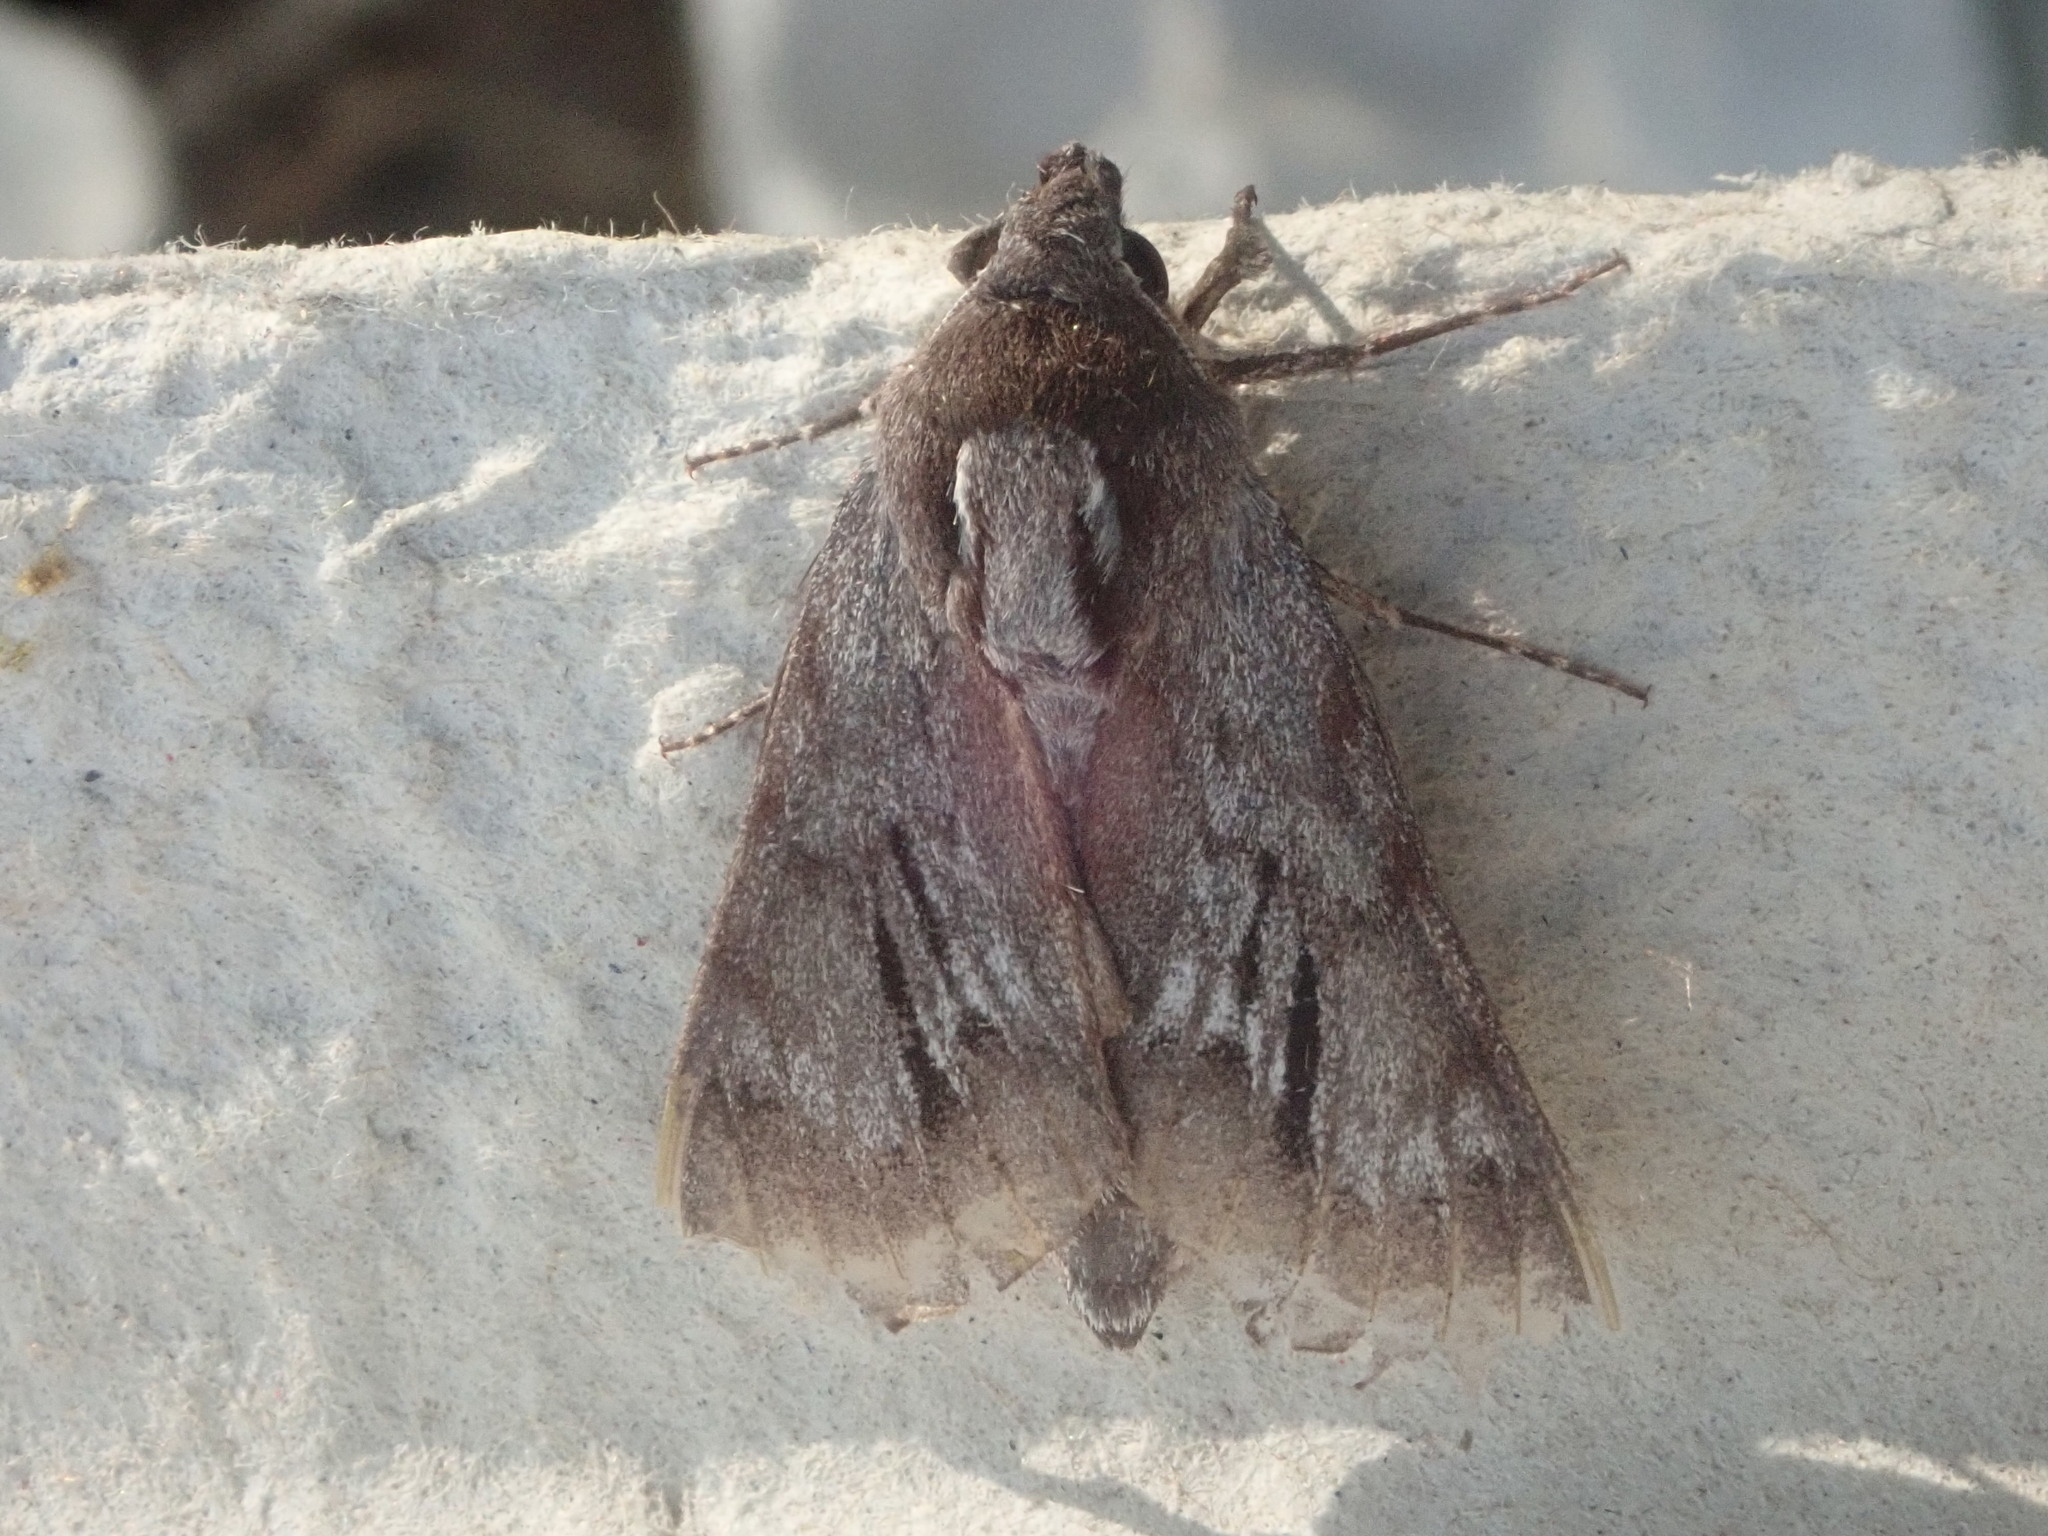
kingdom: Animalia
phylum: Arthropoda
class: Insecta
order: Lepidoptera
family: Sphingidae
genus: Lapara
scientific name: Lapara bombycoides
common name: Northern pine sphinx
